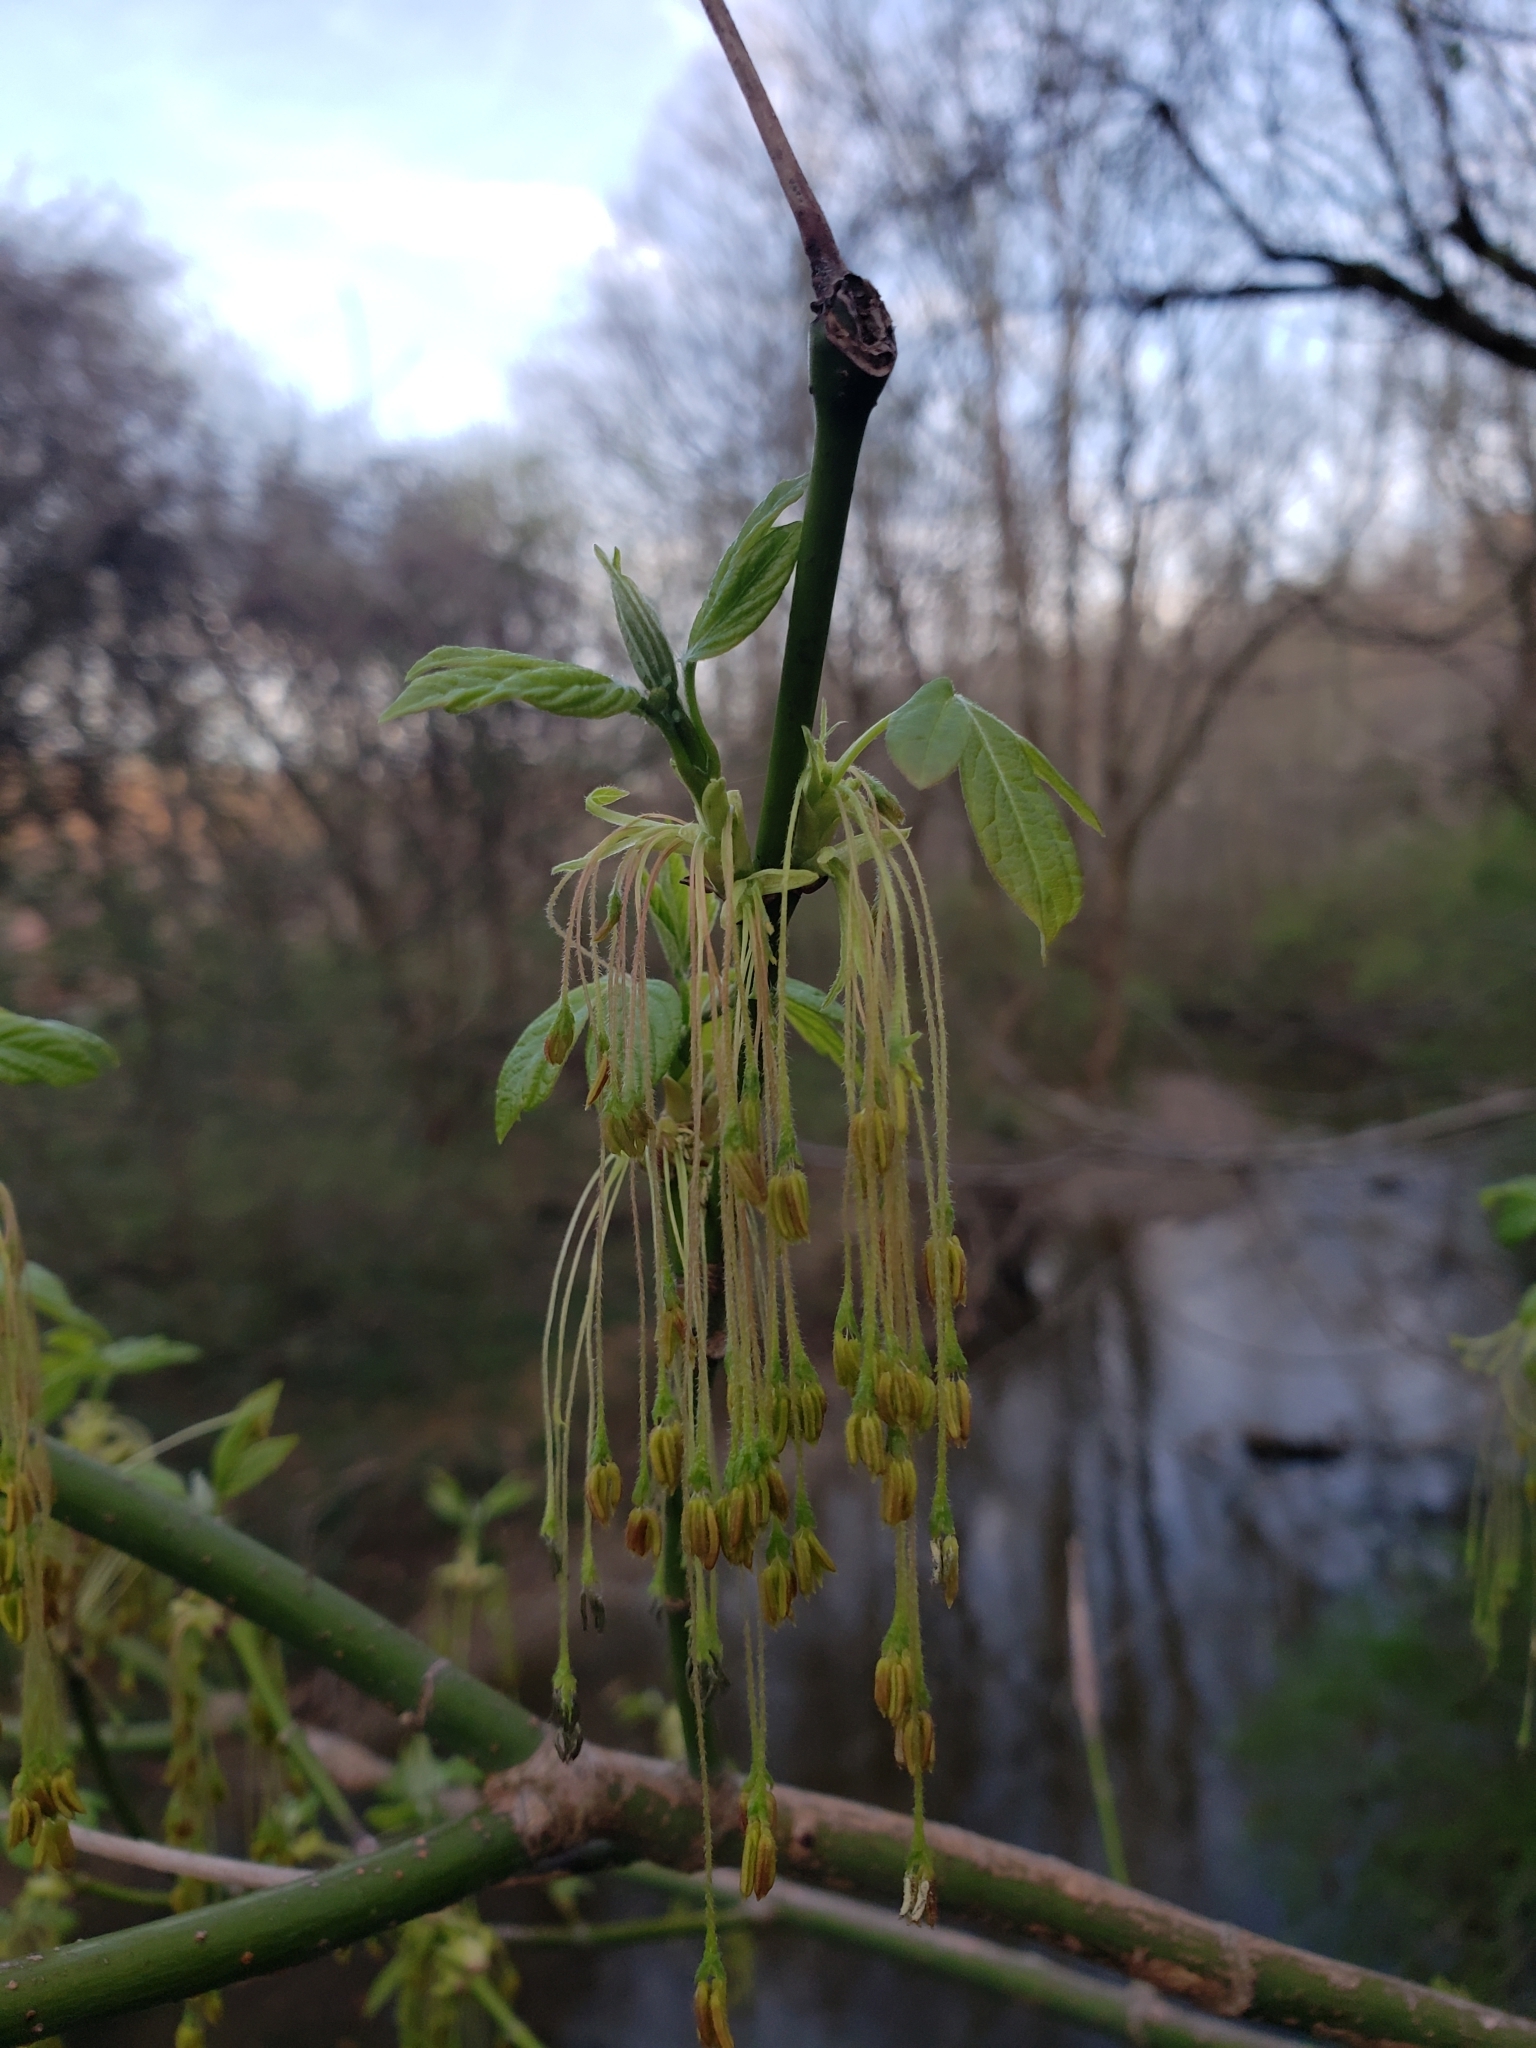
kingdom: Plantae
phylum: Tracheophyta
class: Magnoliopsida
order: Sapindales
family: Sapindaceae
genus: Acer
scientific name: Acer negundo
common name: Ashleaf maple
